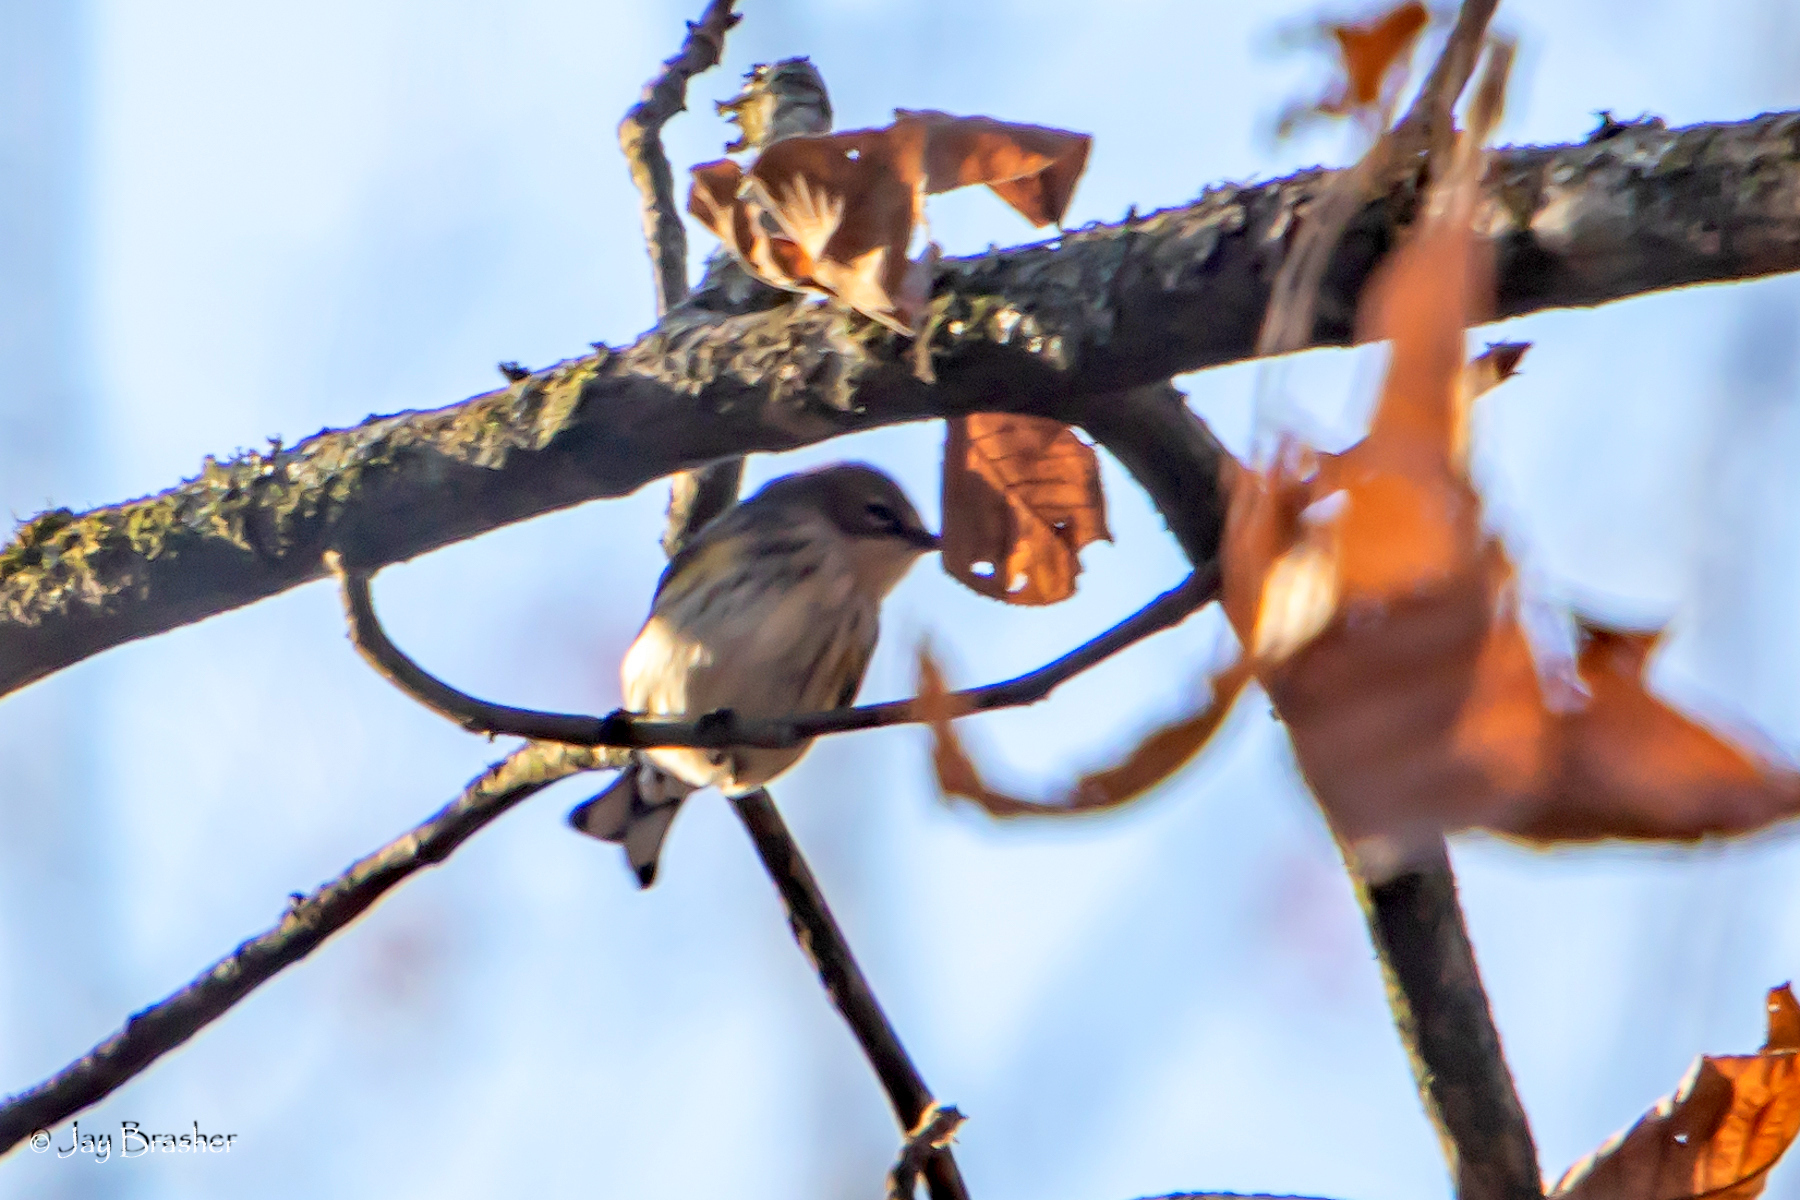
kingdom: Animalia
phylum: Chordata
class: Aves
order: Passeriformes
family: Parulidae
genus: Setophaga
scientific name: Setophaga coronata
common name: Myrtle warbler
